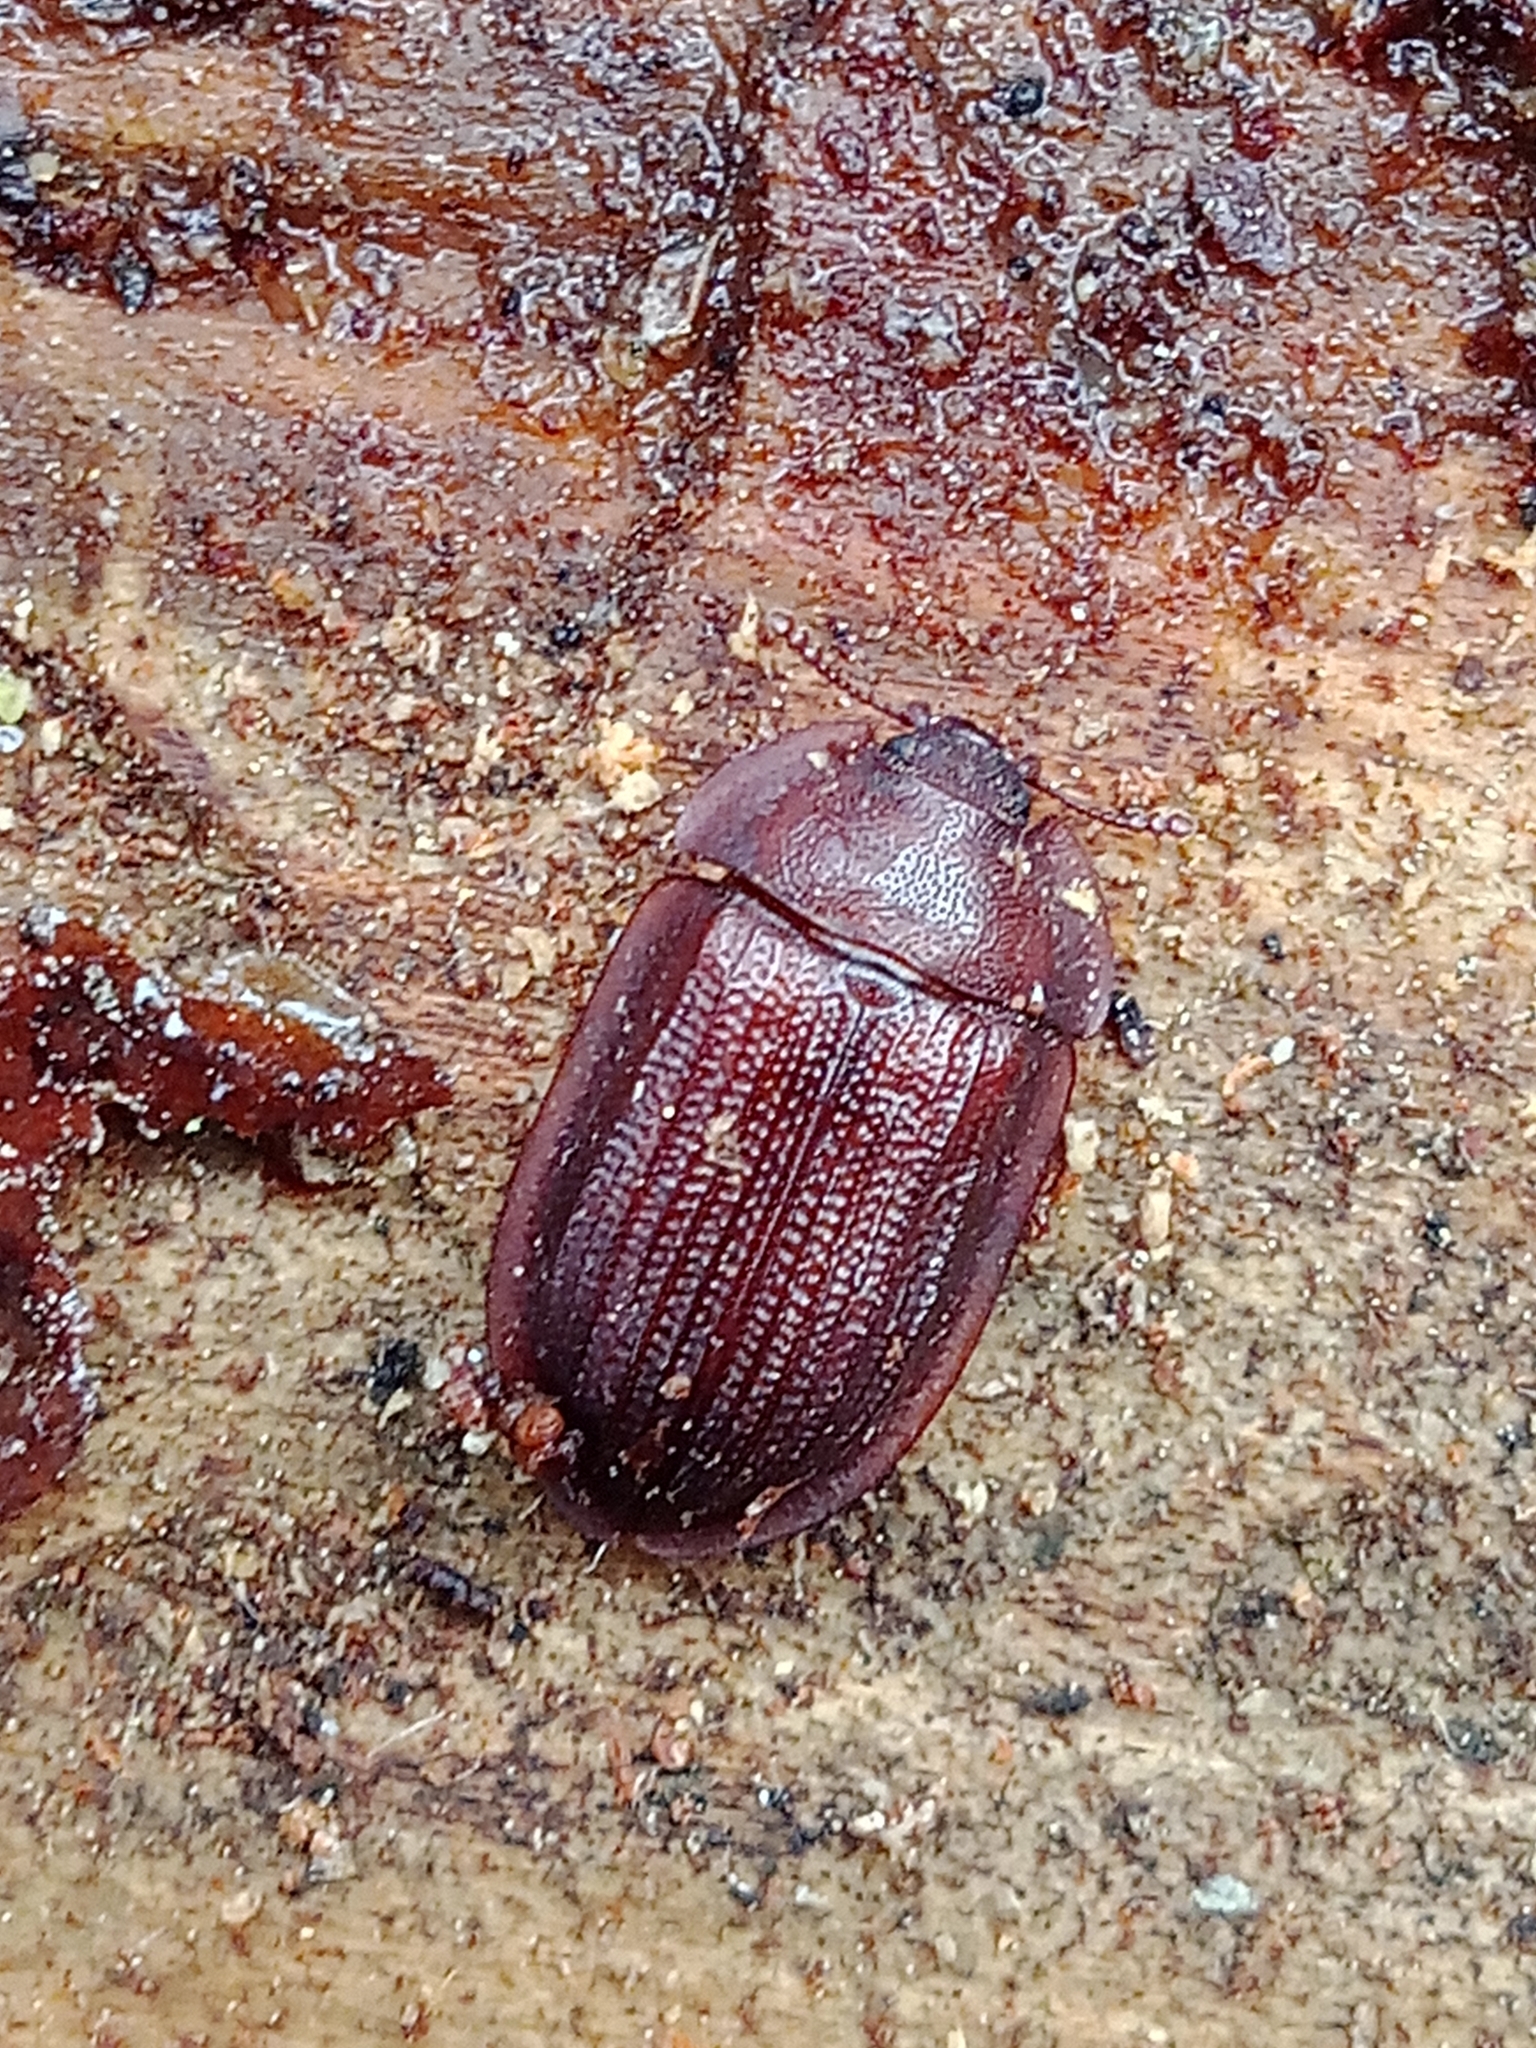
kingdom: Animalia
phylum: Arthropoda
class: Insecta
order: Coleoptera
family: Trogossitidae
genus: Peltis
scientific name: Peltis ferruginea
